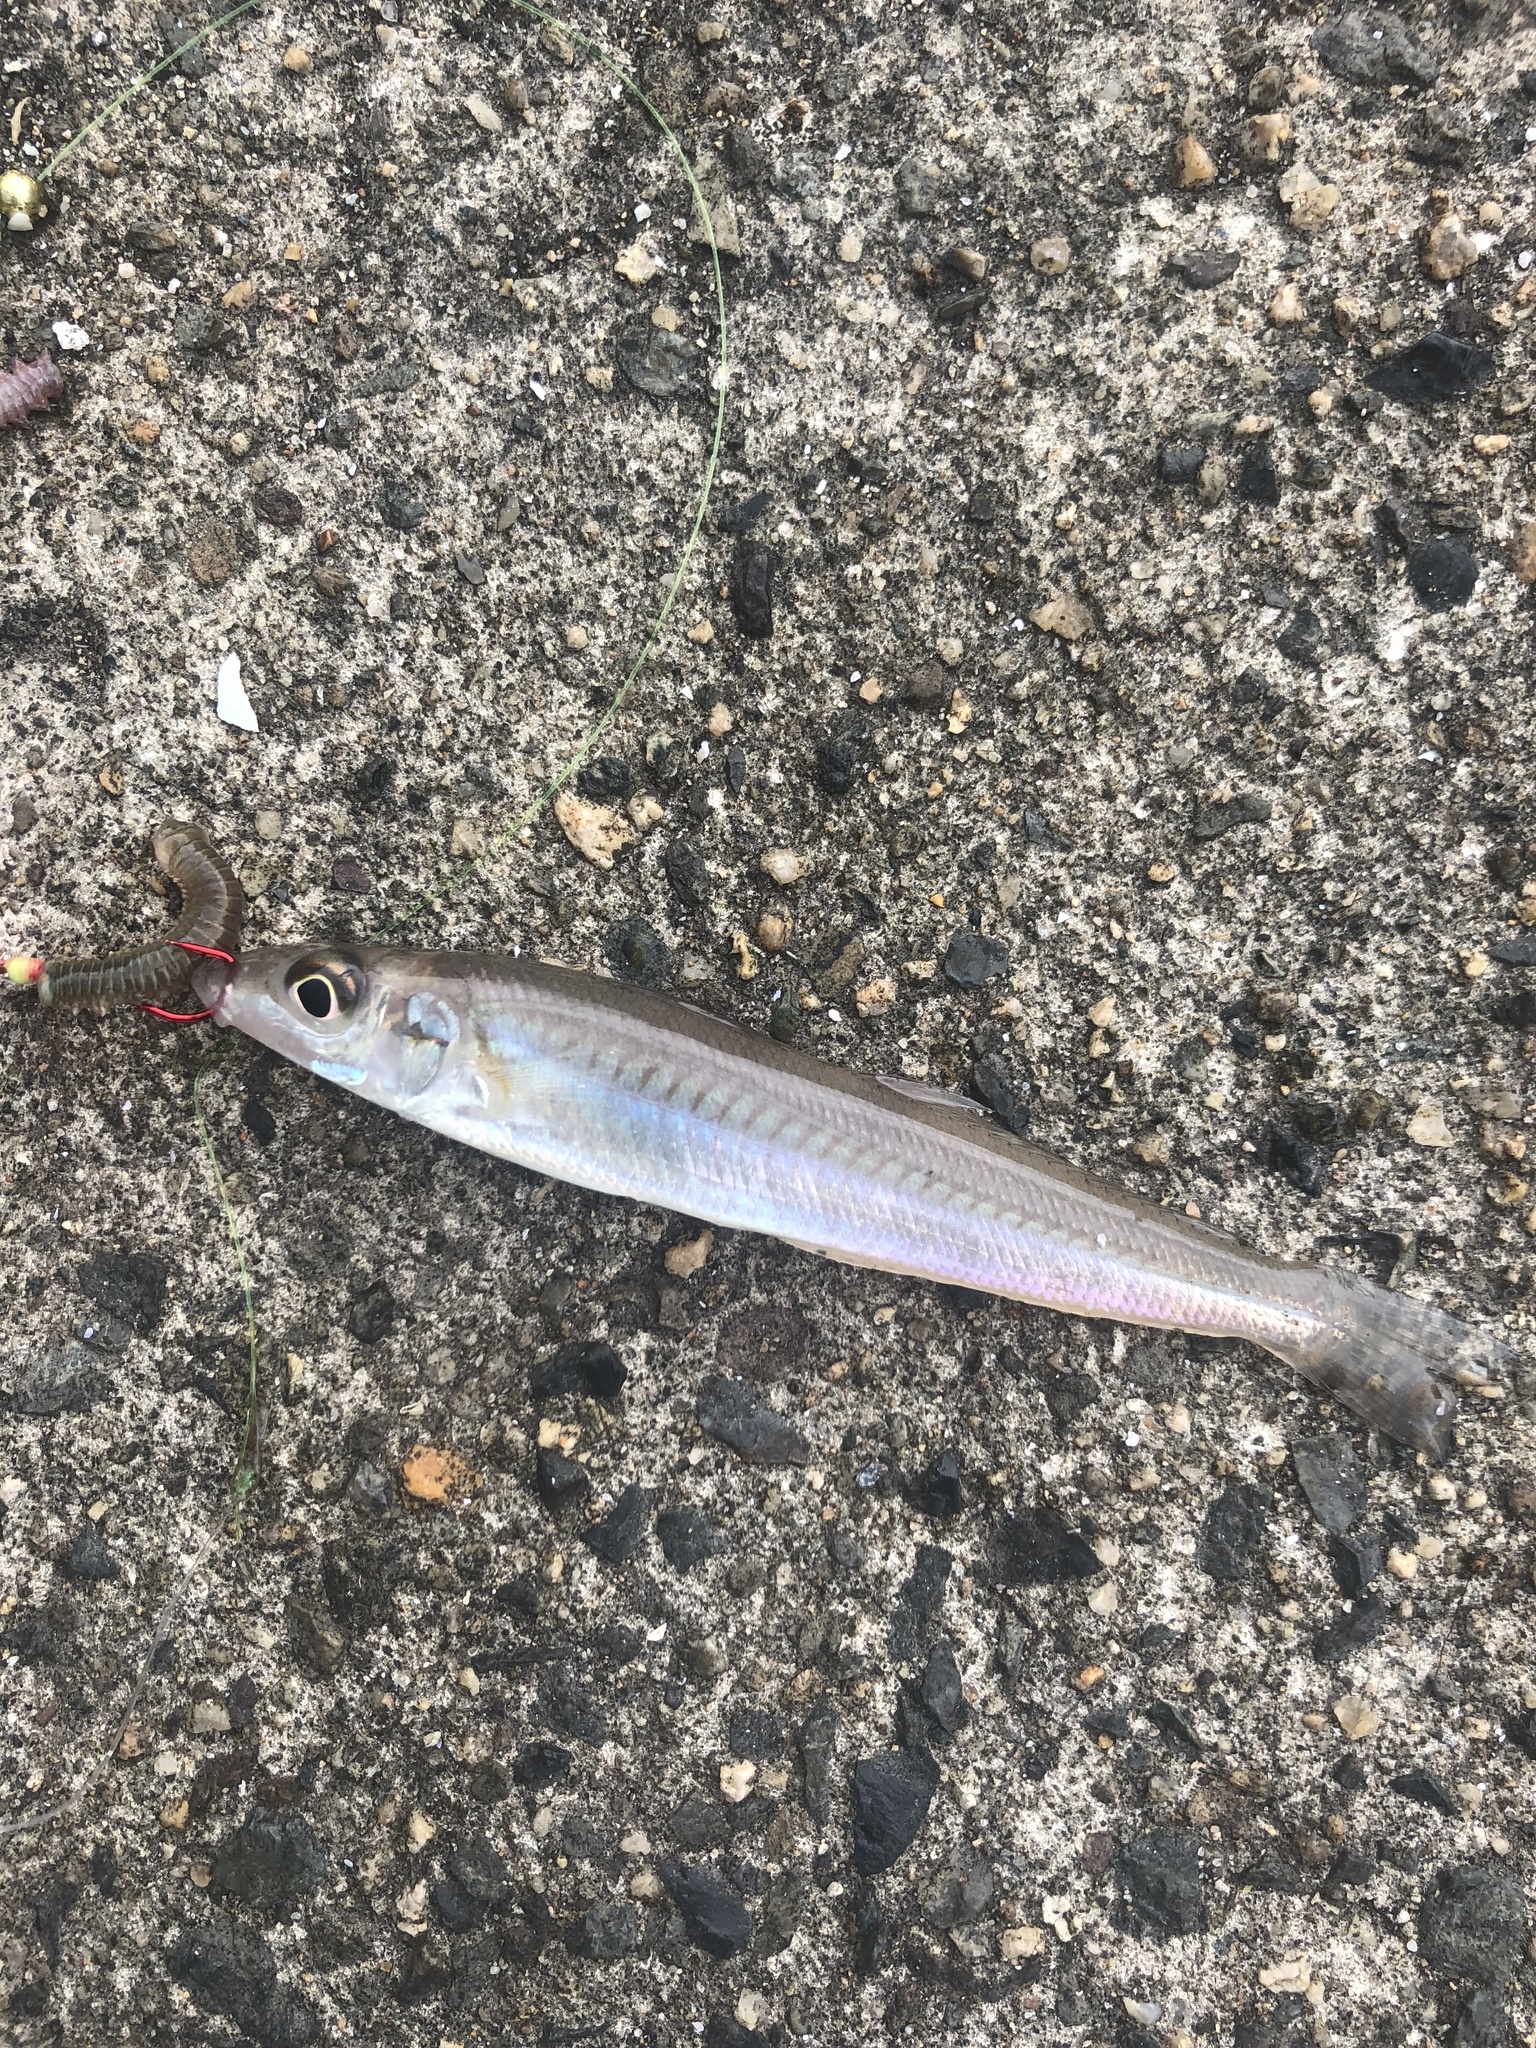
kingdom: Animalia
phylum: Chordata
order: Perciformes
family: Sillaginidae
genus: Sillago
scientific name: Sillago japonica
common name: Japanese sillago
